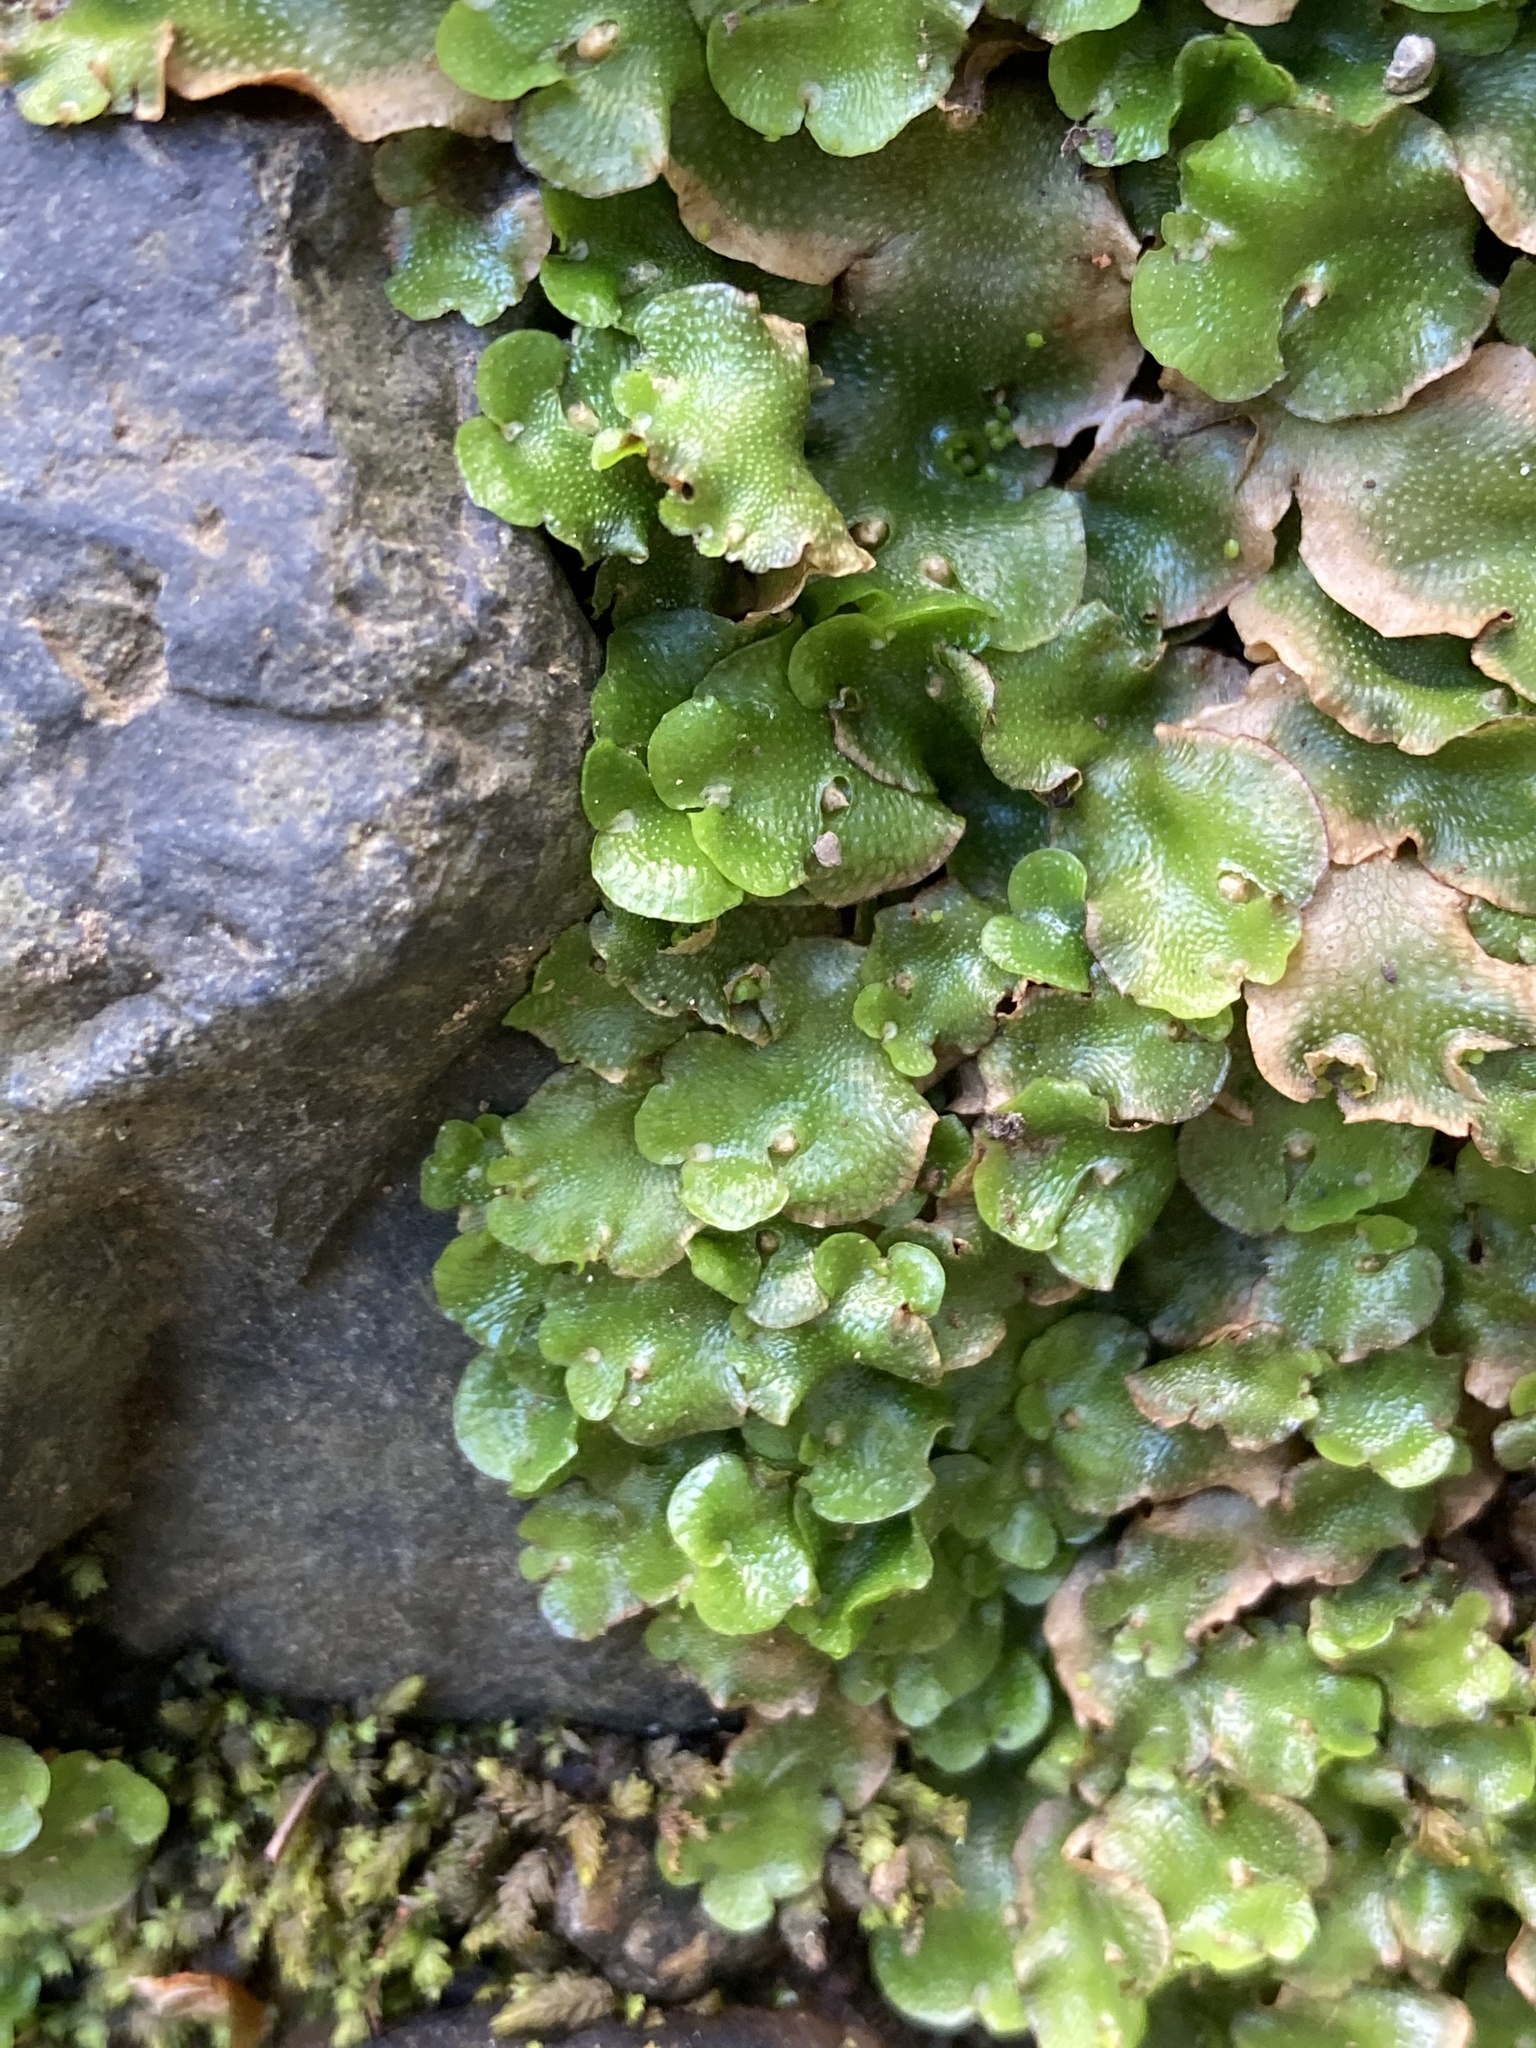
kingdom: Plantae
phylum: Marchantiophyta
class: Marchantiopsida
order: Lunulariales
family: Lunulariaceae
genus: Lunularia
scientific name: Lunularia cruciata
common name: Crescent-cup liverwort
